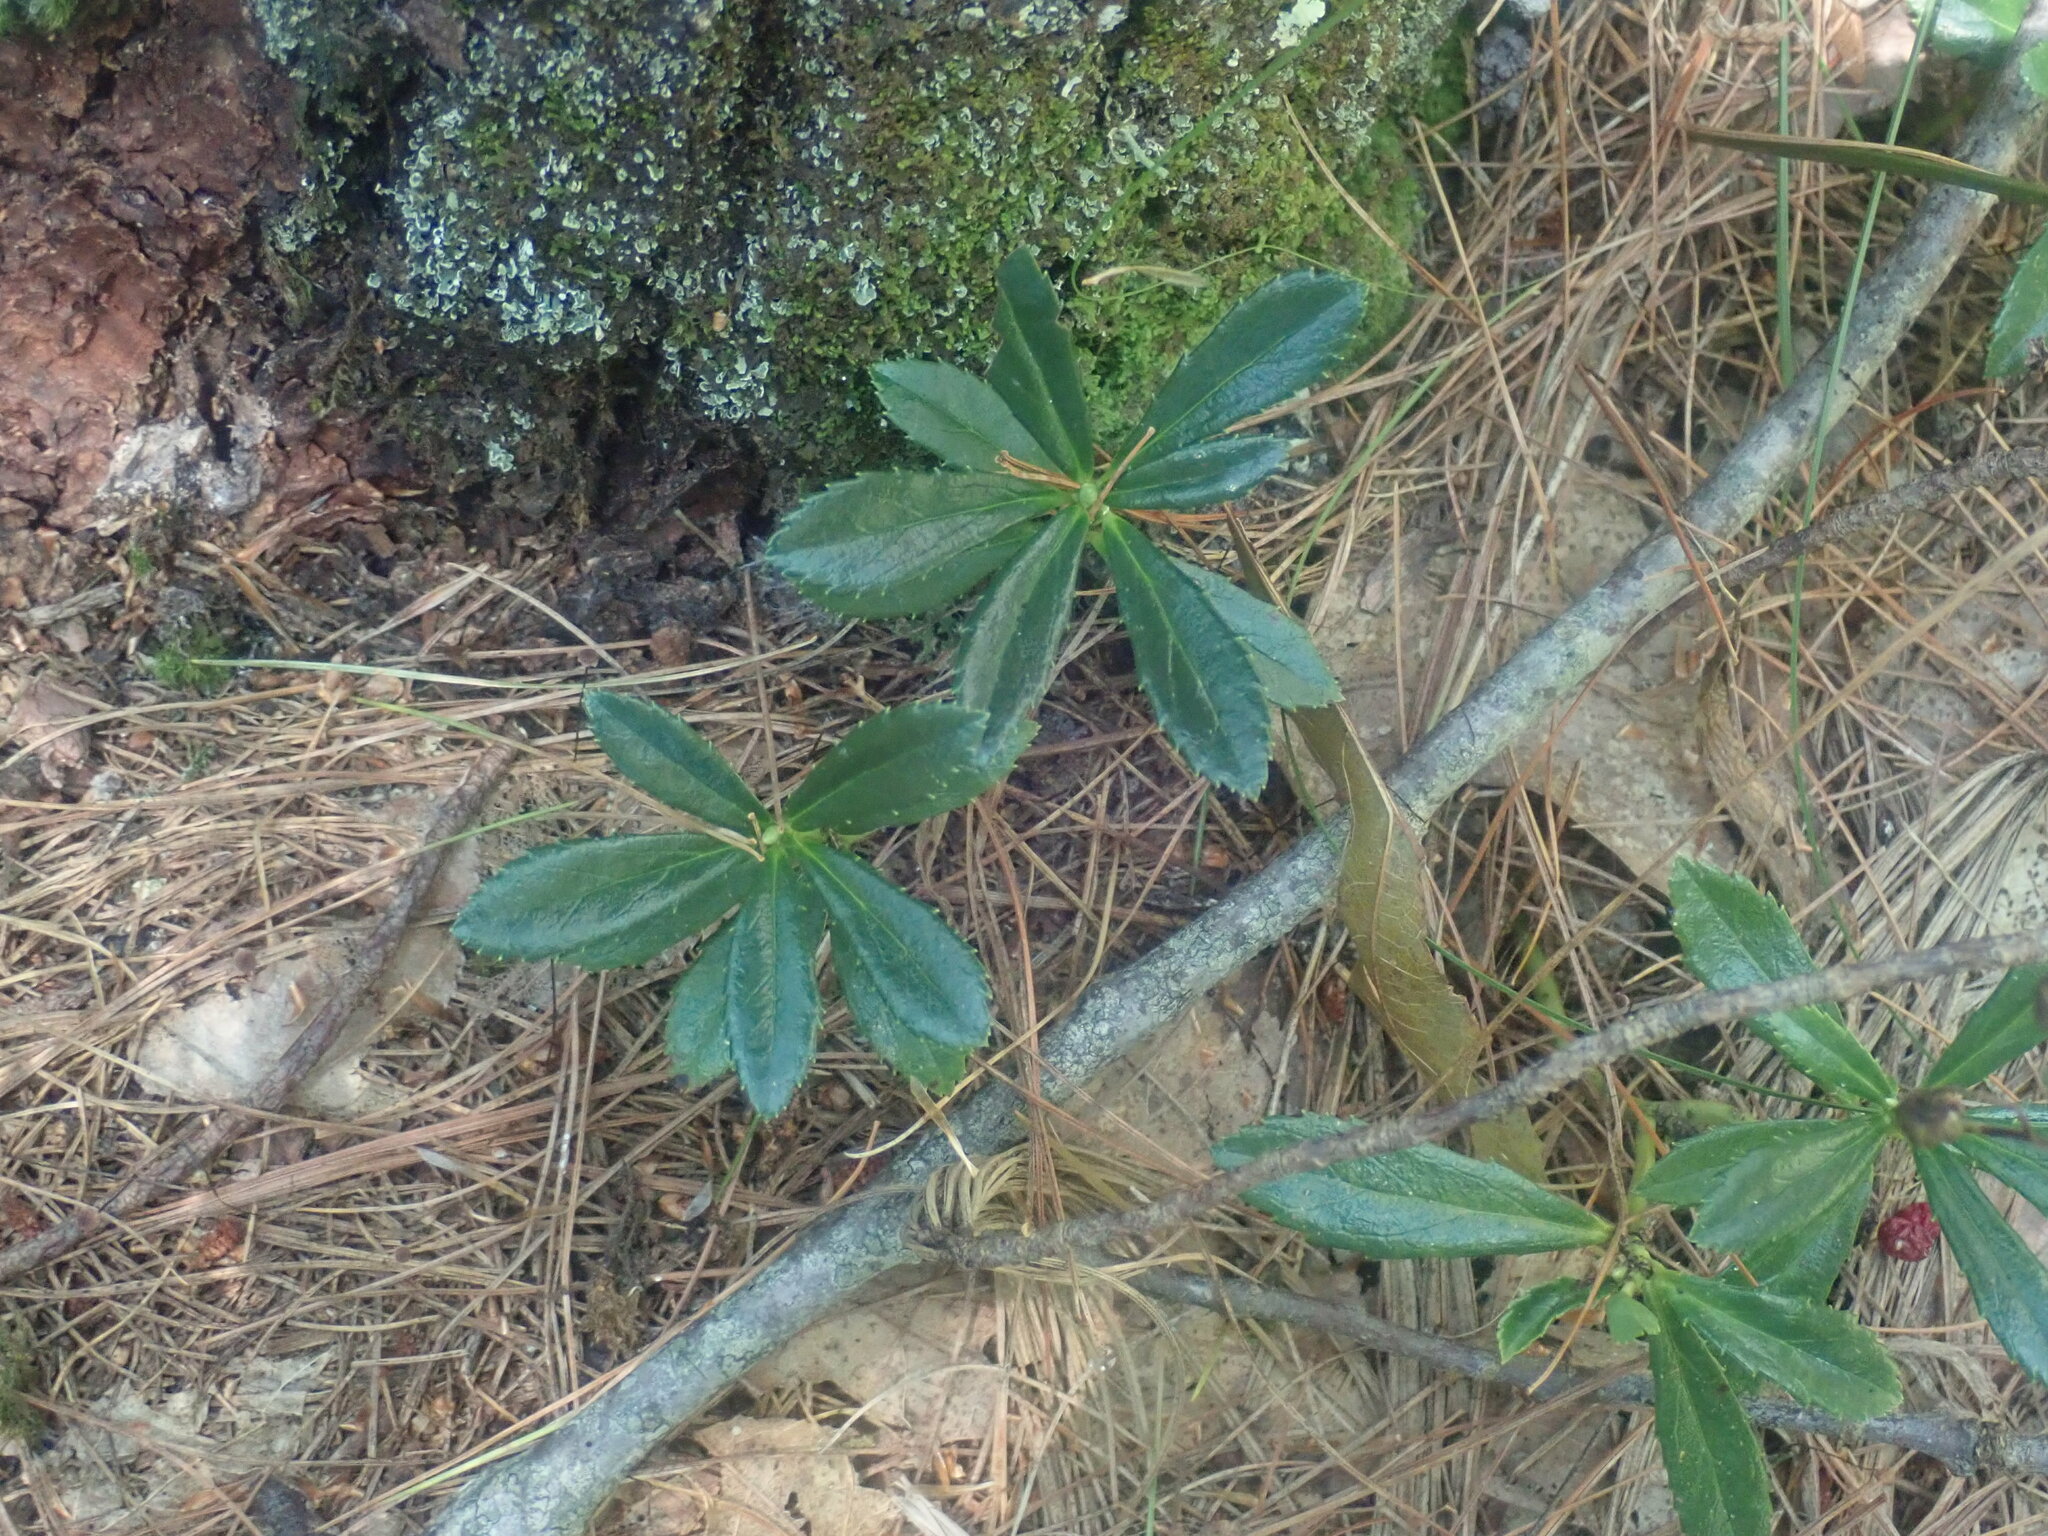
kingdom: Plantae
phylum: Tracheophyta
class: Magnoliopsida
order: Ericales
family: Ericaceae
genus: Chimaphila
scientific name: Chimaphila umbellata
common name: Pipsissewa
